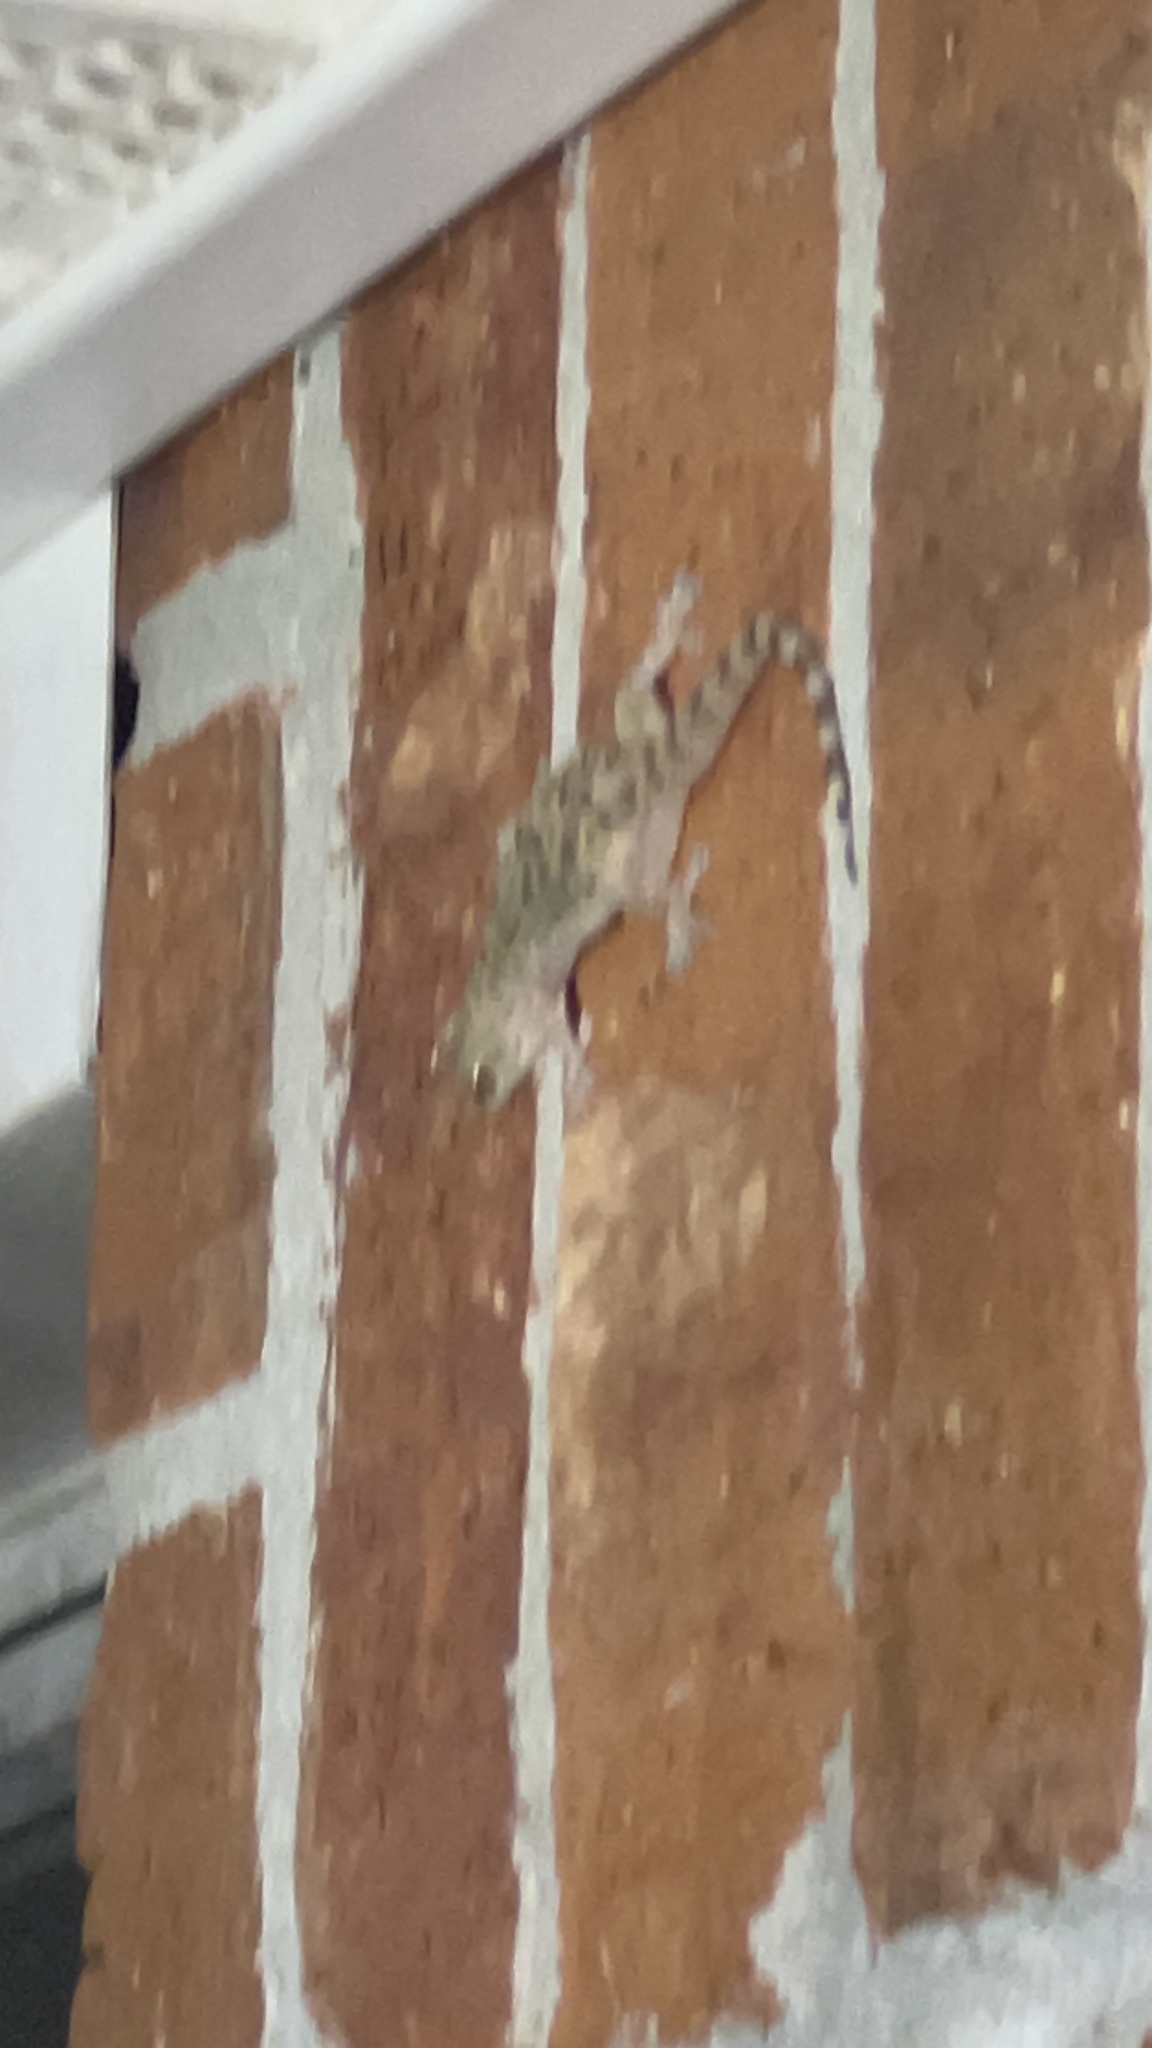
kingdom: Animalia
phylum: Chordata
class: Squamata
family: Gekkonidae
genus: Hemidactylus
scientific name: Hemidactylus turcicus
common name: Turkish gecko
